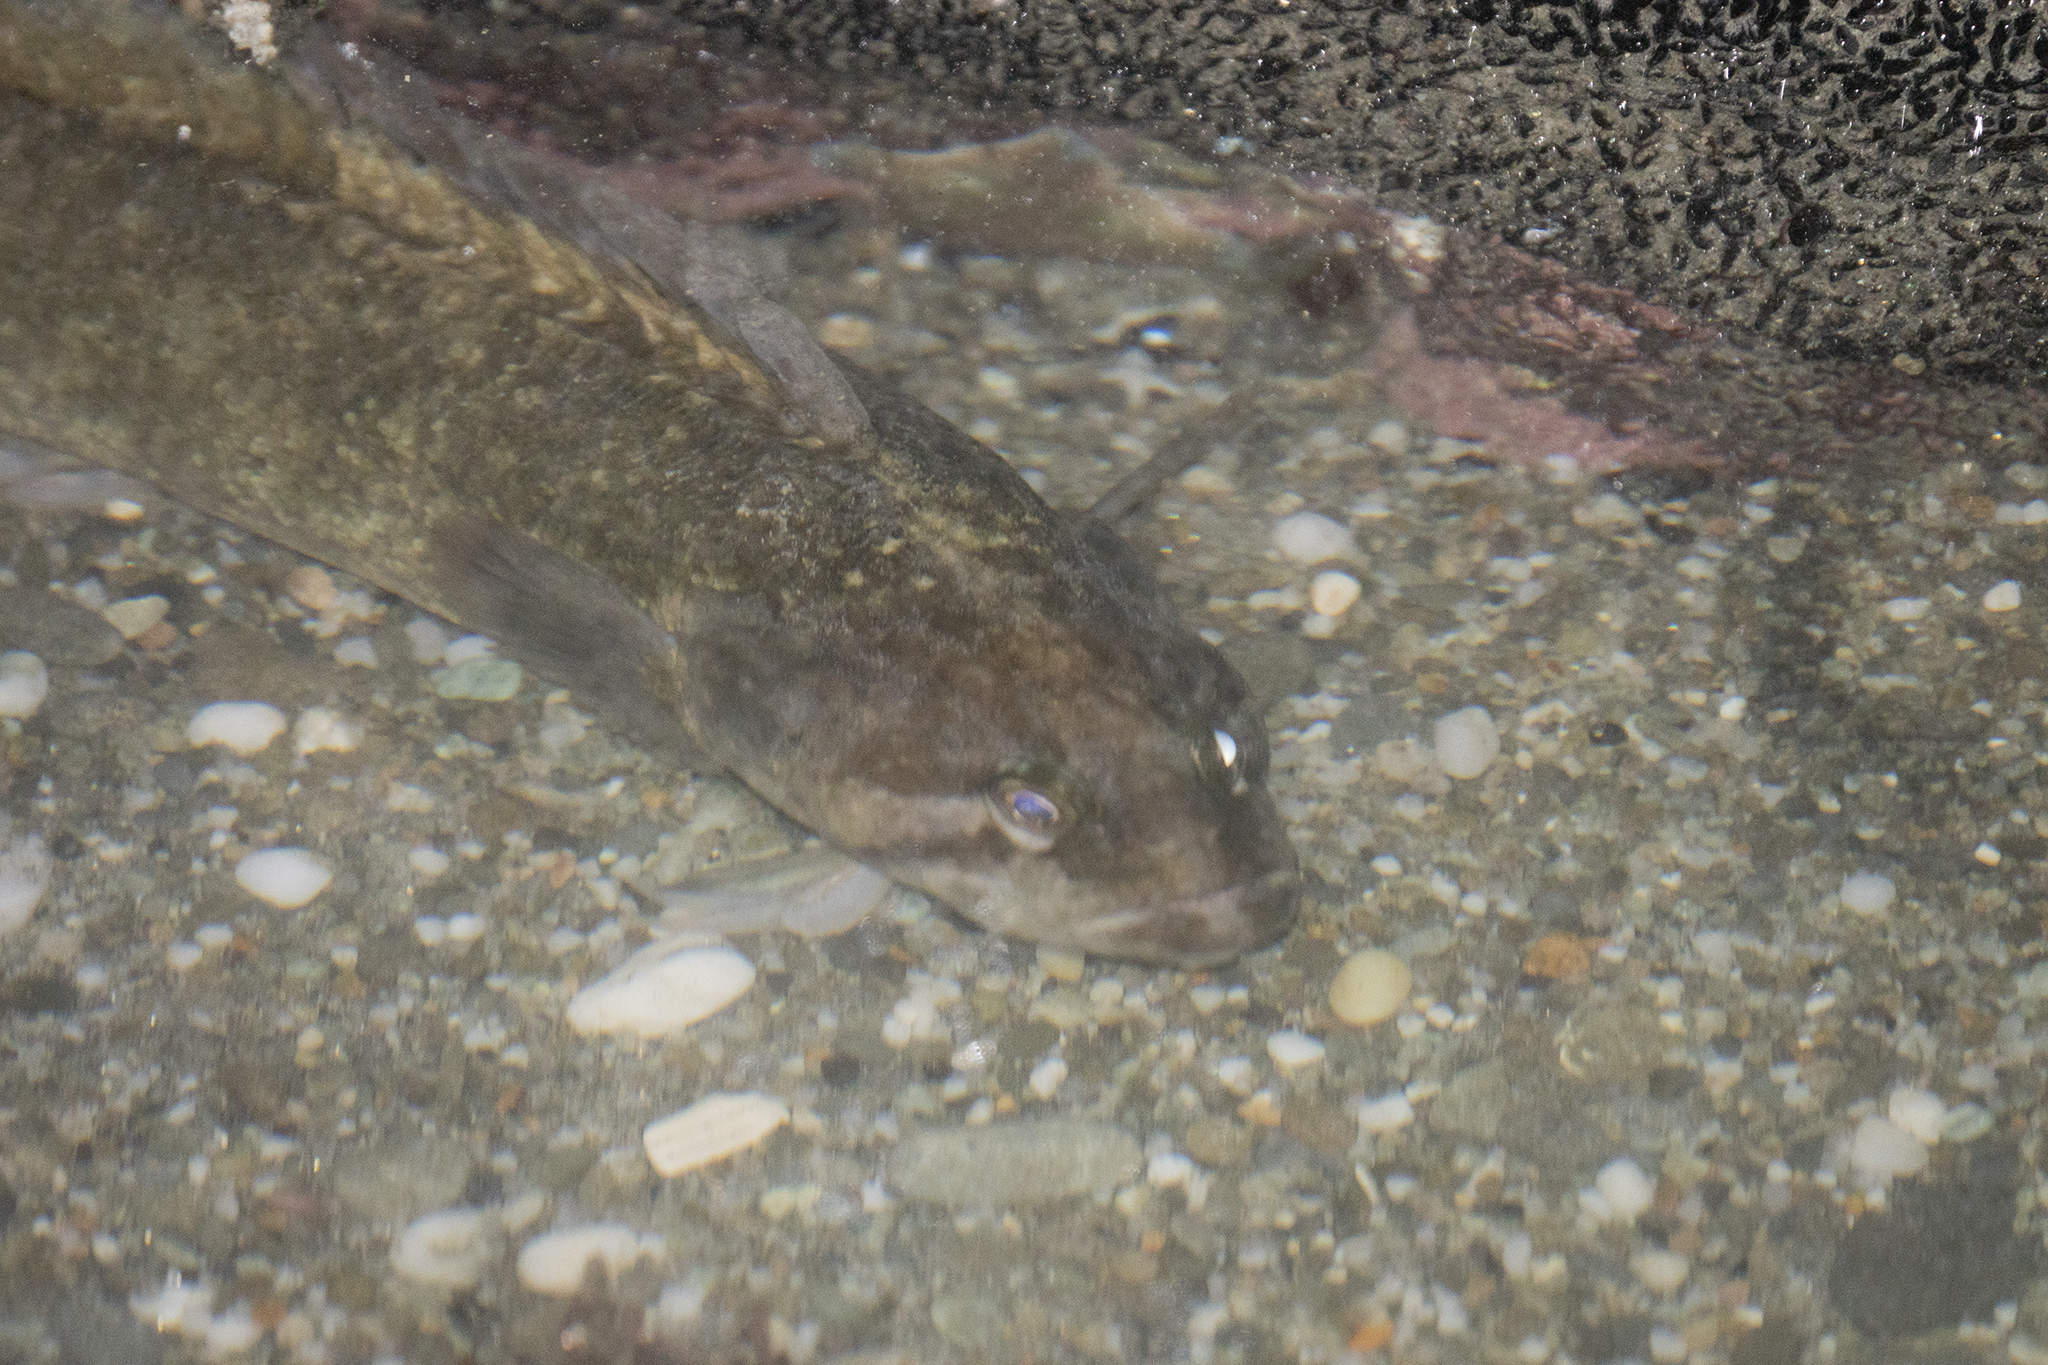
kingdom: Animalia
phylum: Chordata
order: Perciformes
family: Plesiopidae
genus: Acanthoclinus
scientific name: Acanthoclinus fuscus
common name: Olive rockfish
